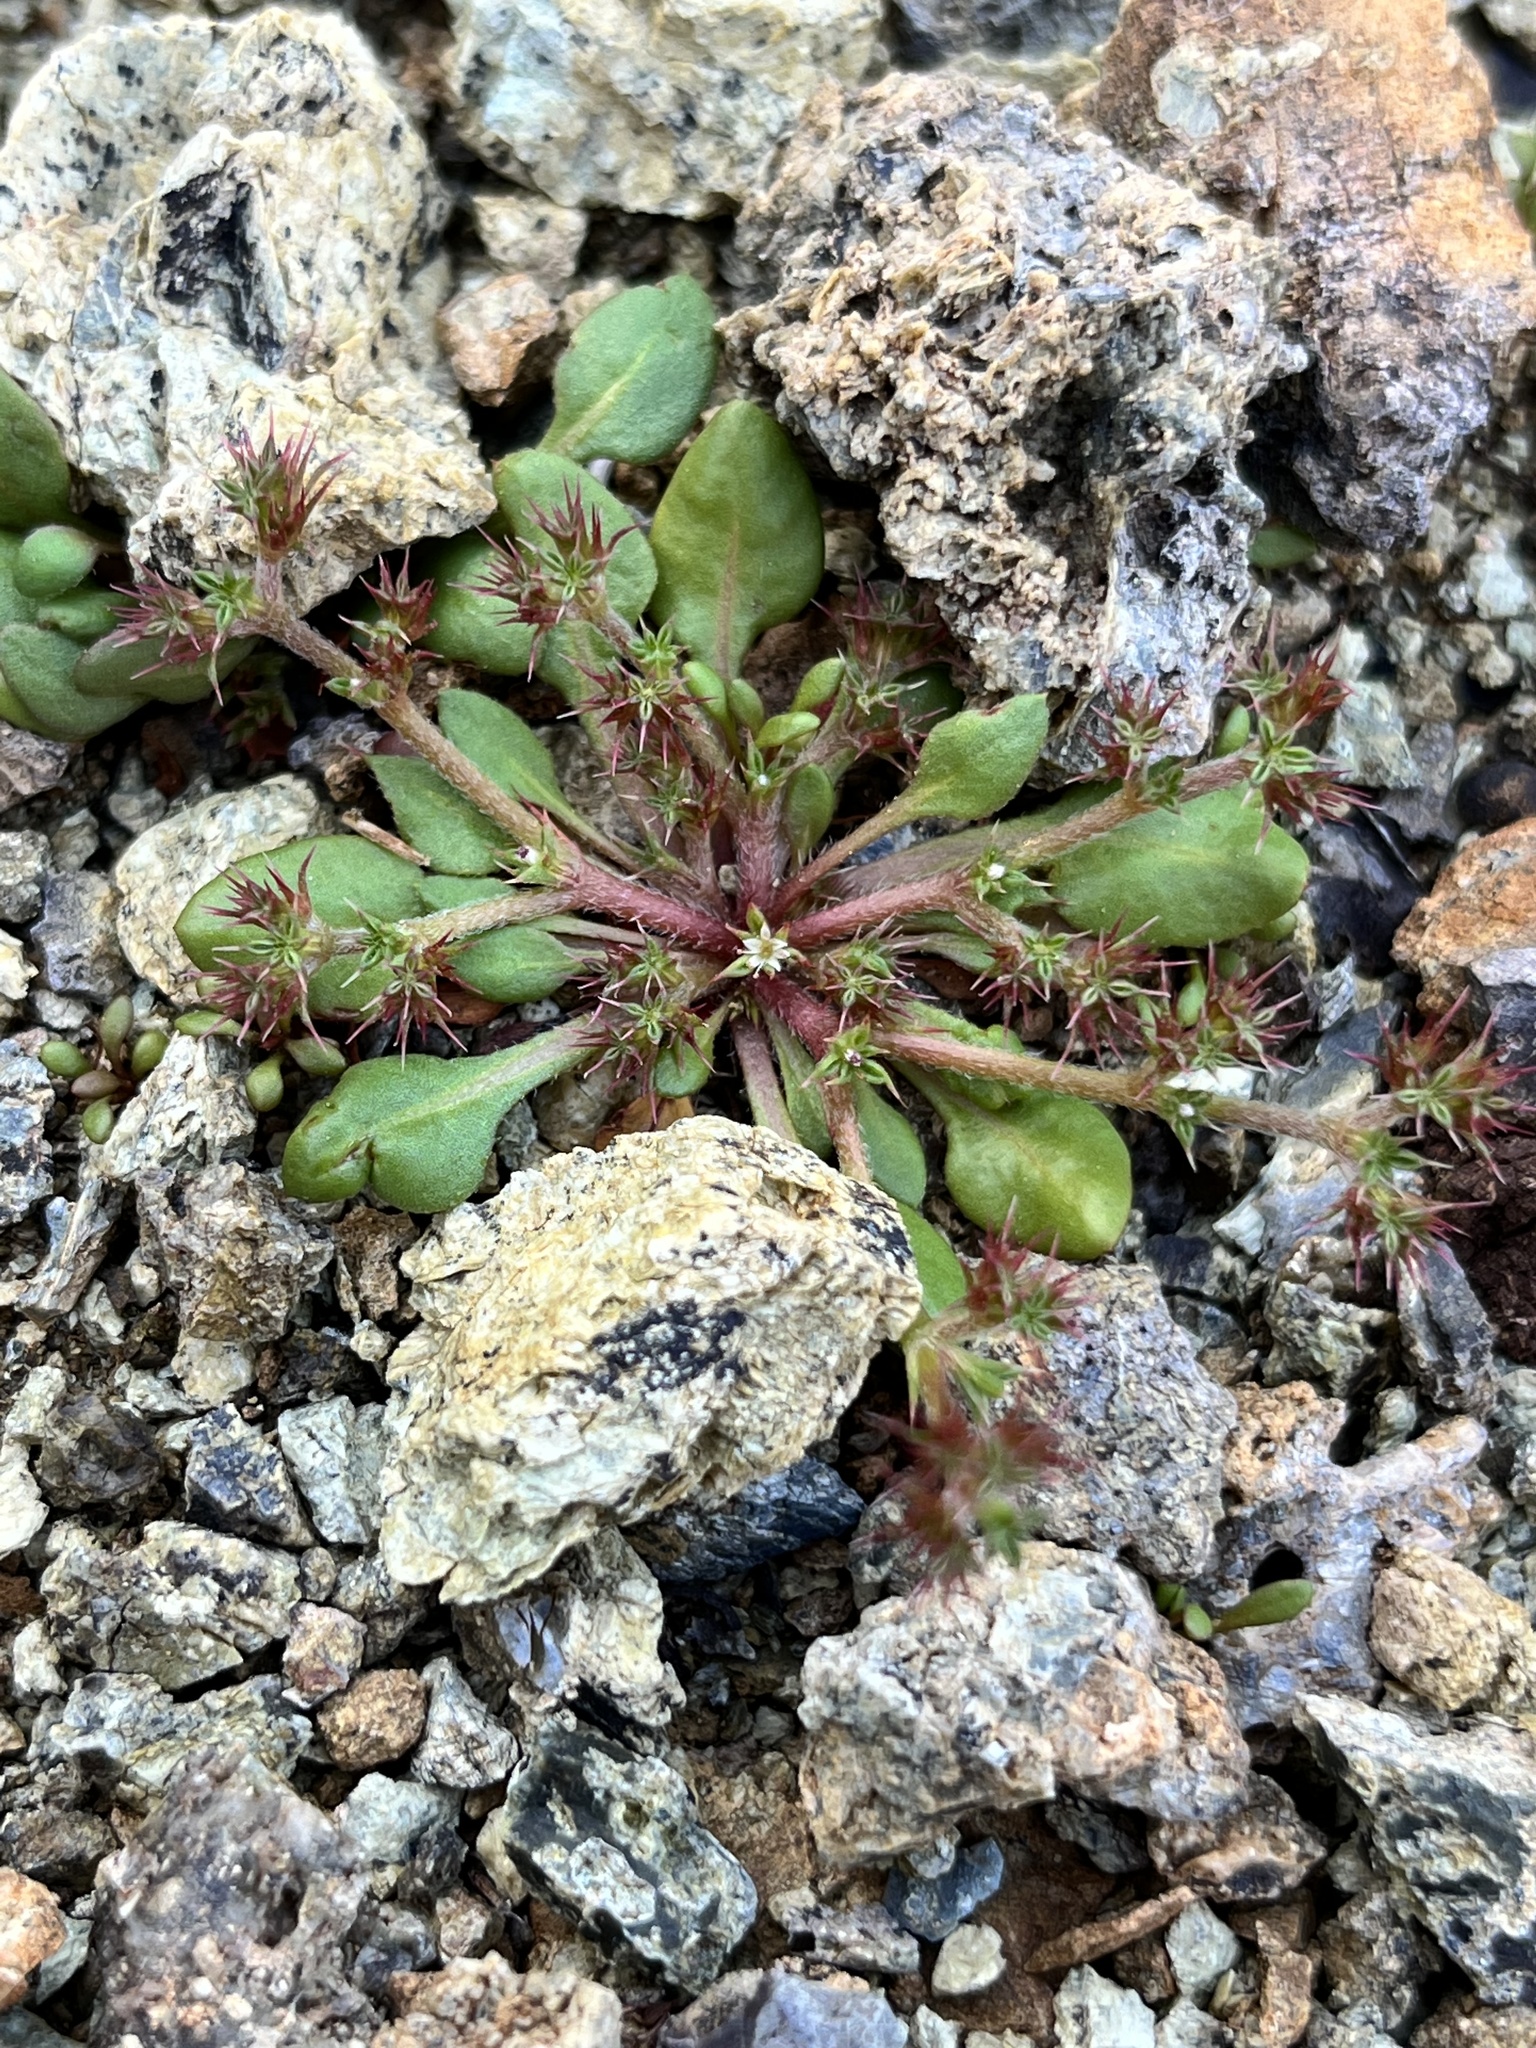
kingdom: Plantae
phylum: Tracheophyta
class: Magnoliopsida
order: Caryophyllales
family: Polygonaceae
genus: Chorizanthe
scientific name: Chorizanthe aphanantha
